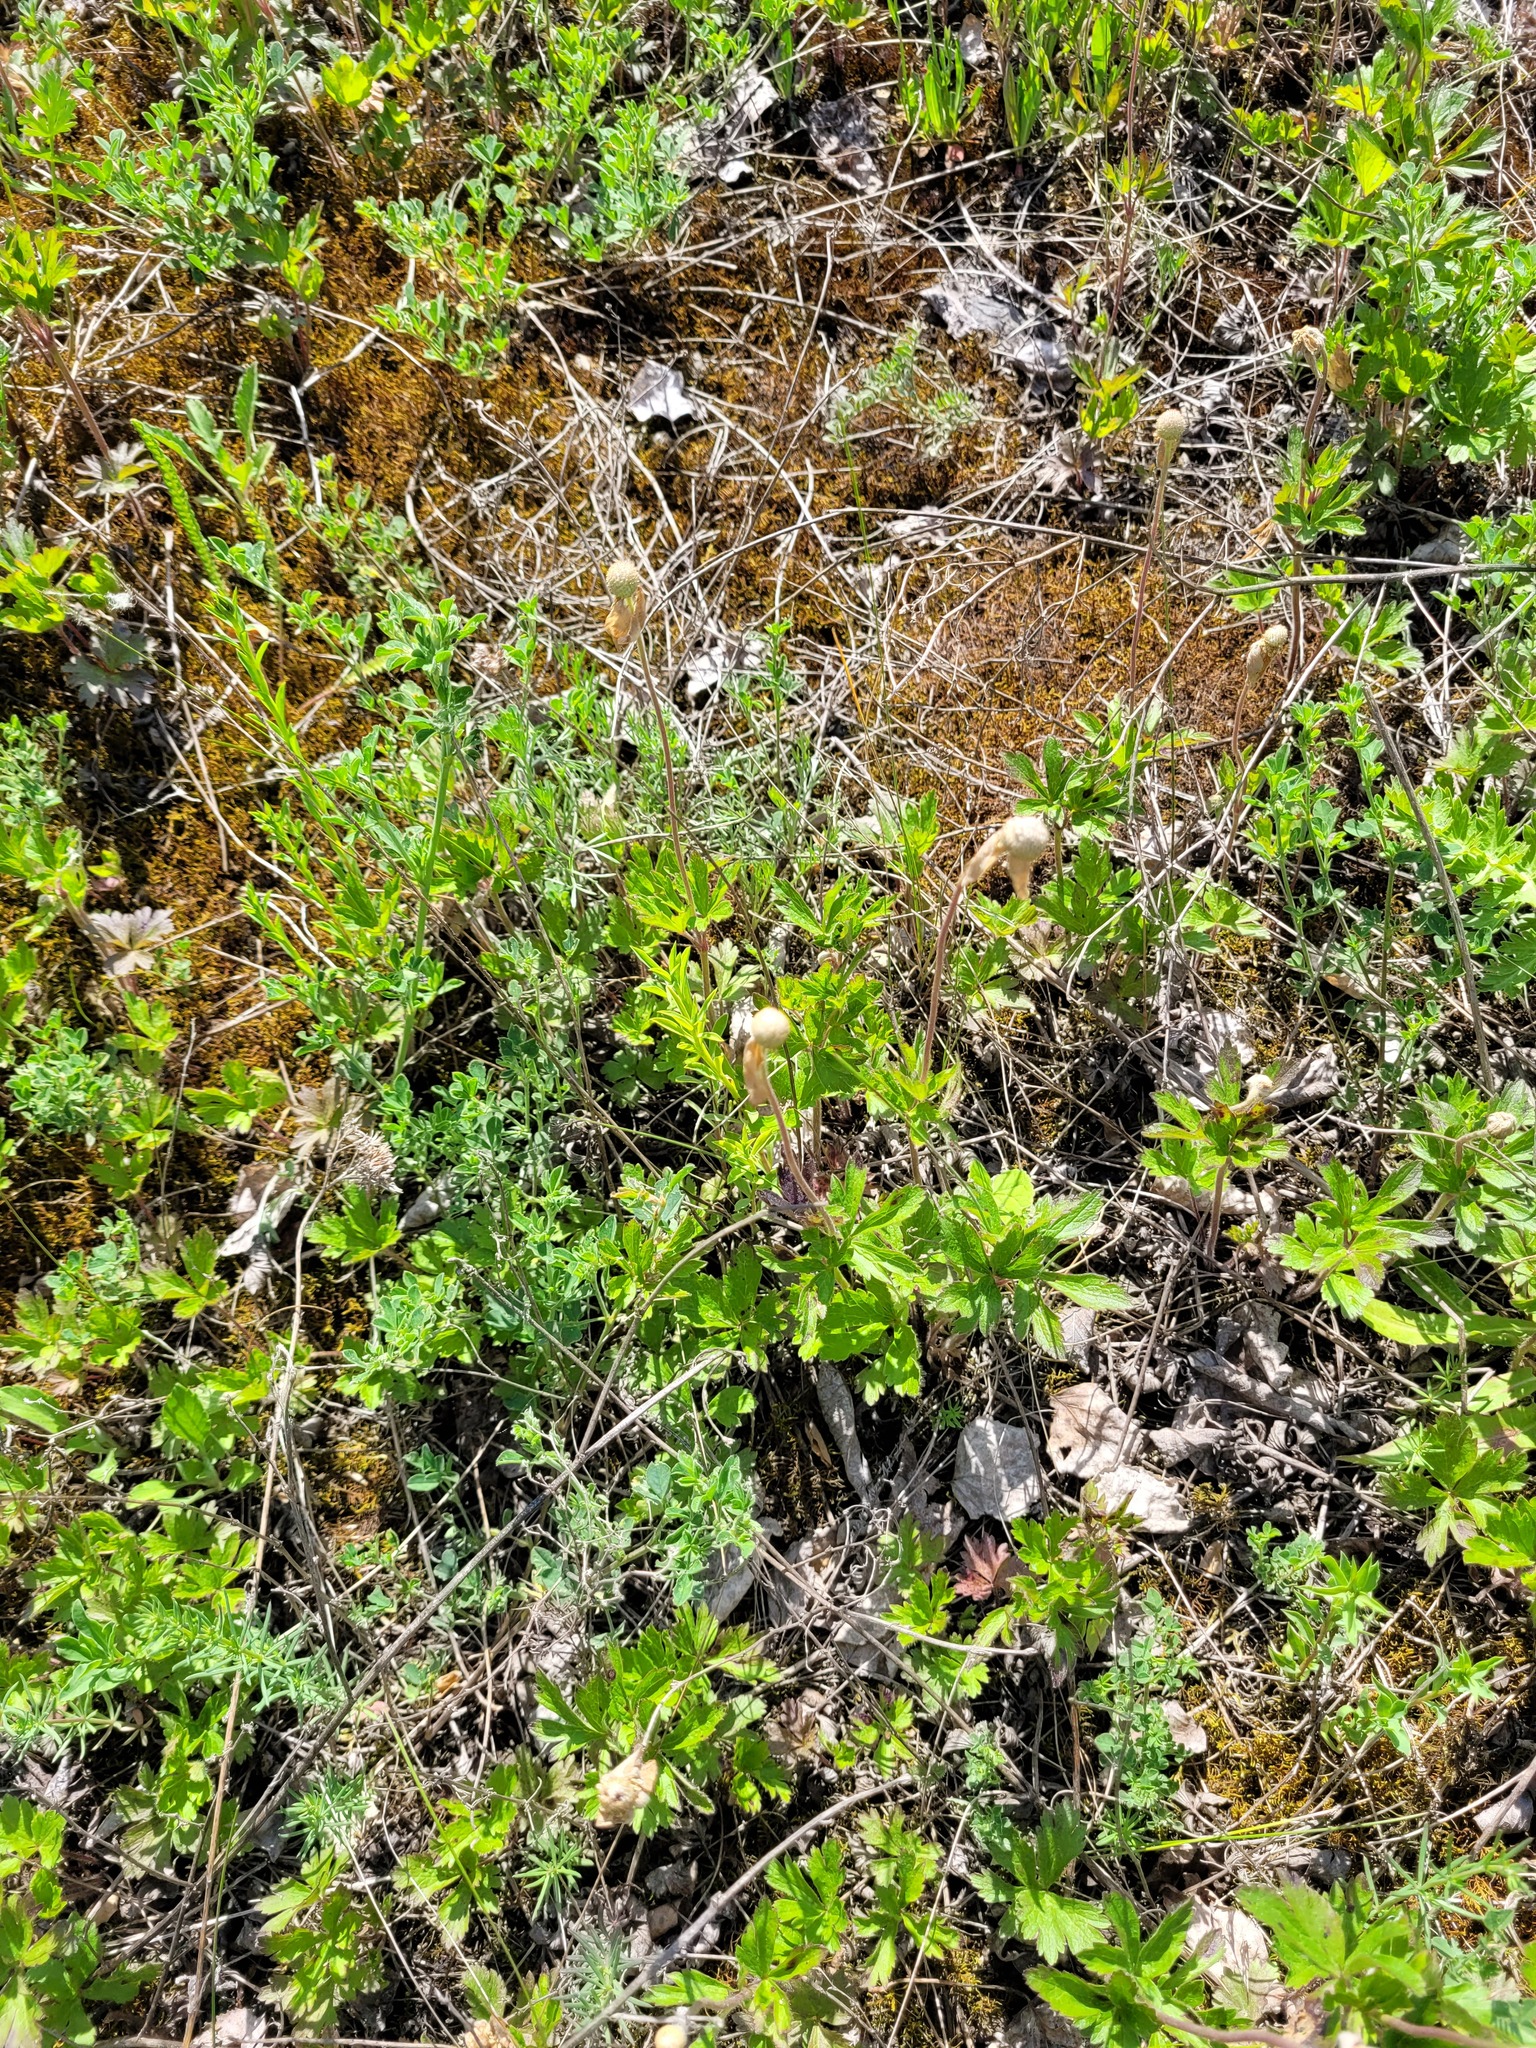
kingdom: Plantae
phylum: Tracheophyta
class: Magnoliopsida
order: Ranunculales
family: Ranunculaceae
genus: Anemone
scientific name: Anemone sylvestris
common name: Snowdrop anemone
